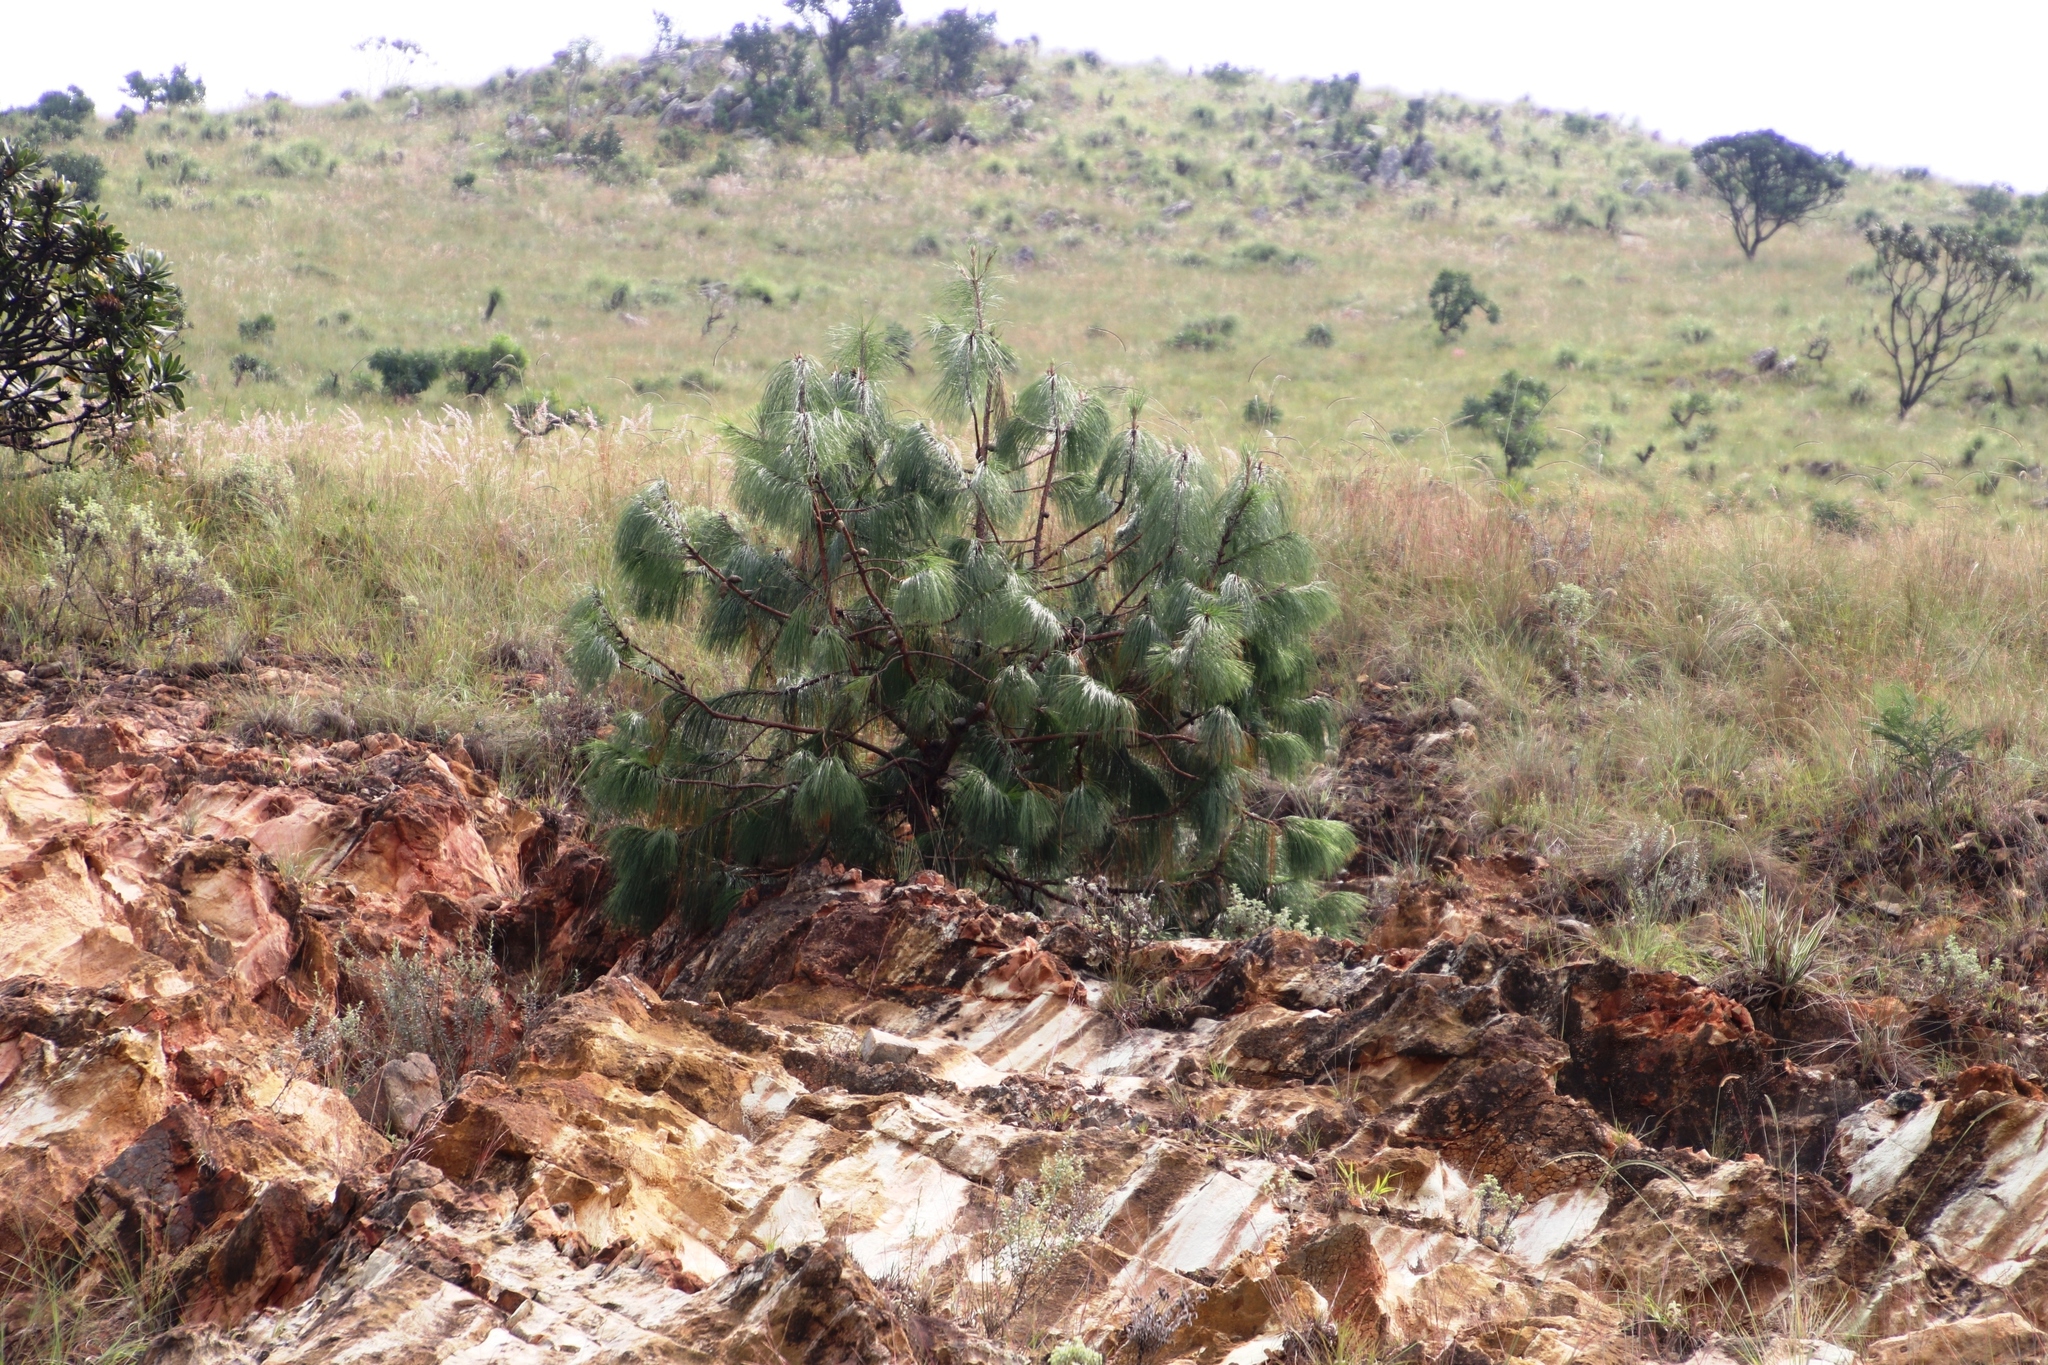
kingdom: Plantae
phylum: Tracheophyta
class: Pinopsida
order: Pinales
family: Pinaceae
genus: Pinus
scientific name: Pinus patula
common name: Mexican weeping pine
